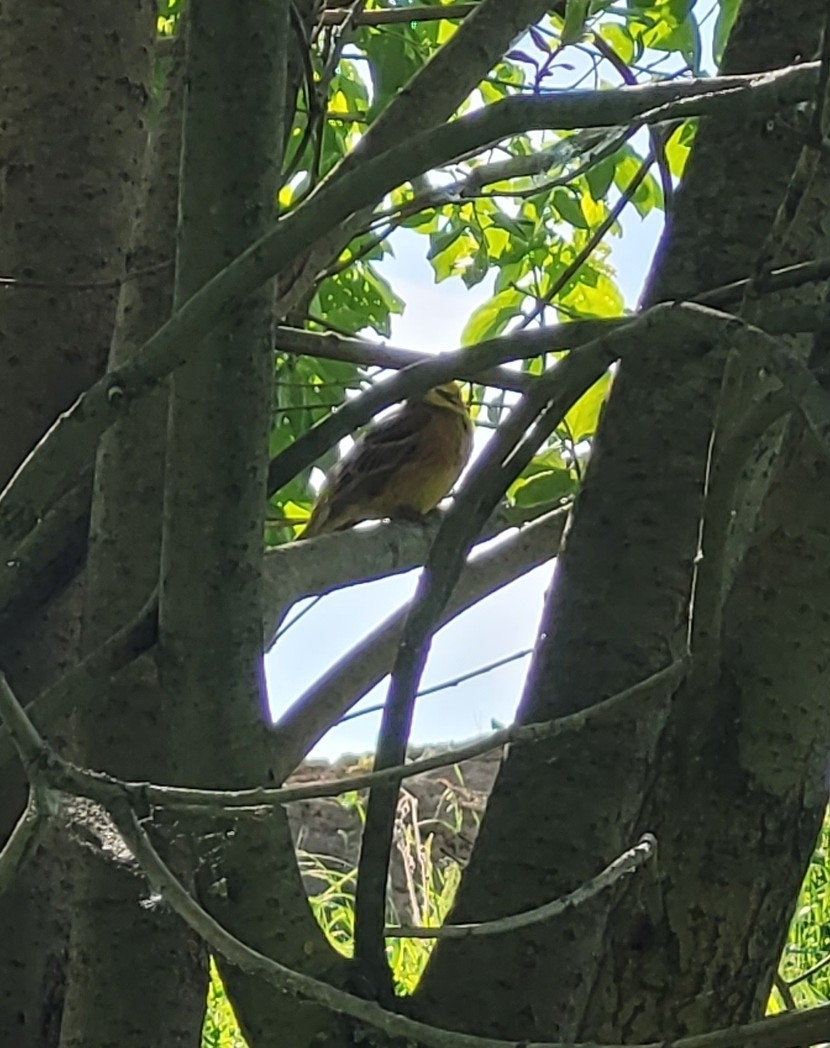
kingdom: Animalia
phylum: Chordata
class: Aves
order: Passeriformes
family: Emberizidae
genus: Emberiza
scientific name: Emberiza citrinella
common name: Yellowhammer
